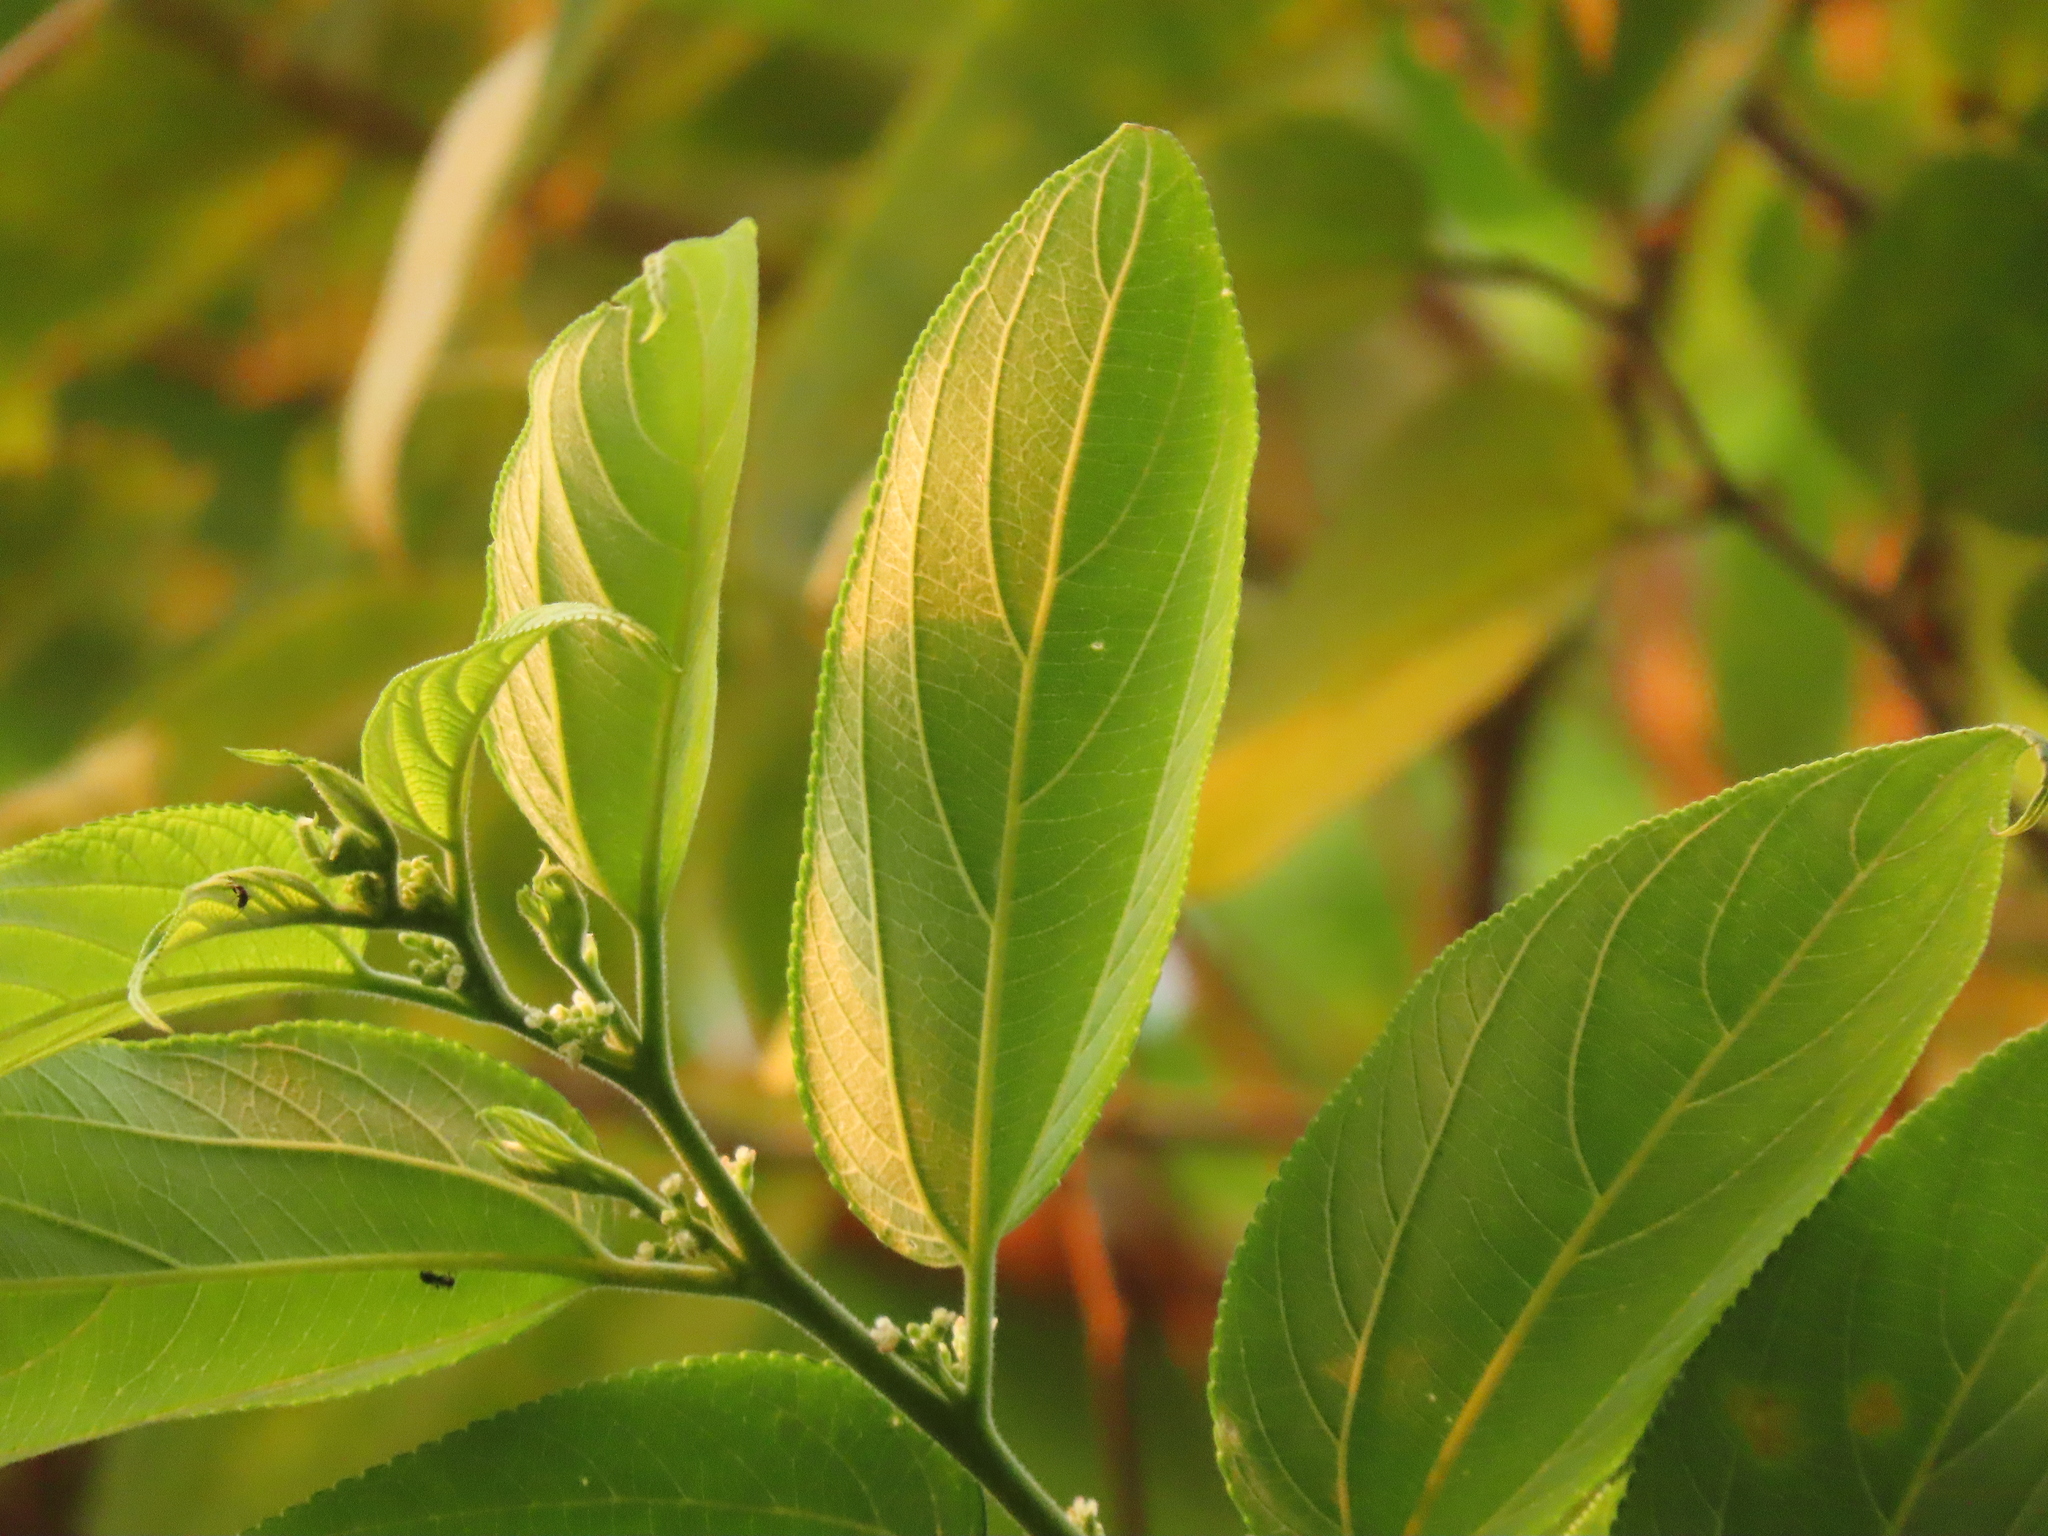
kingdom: Plantae
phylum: Tracheophyta
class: Magnoliopsida
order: Rosales
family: Cannabaceae
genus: Trema
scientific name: Trema orientale
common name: Indian charcoal tree
